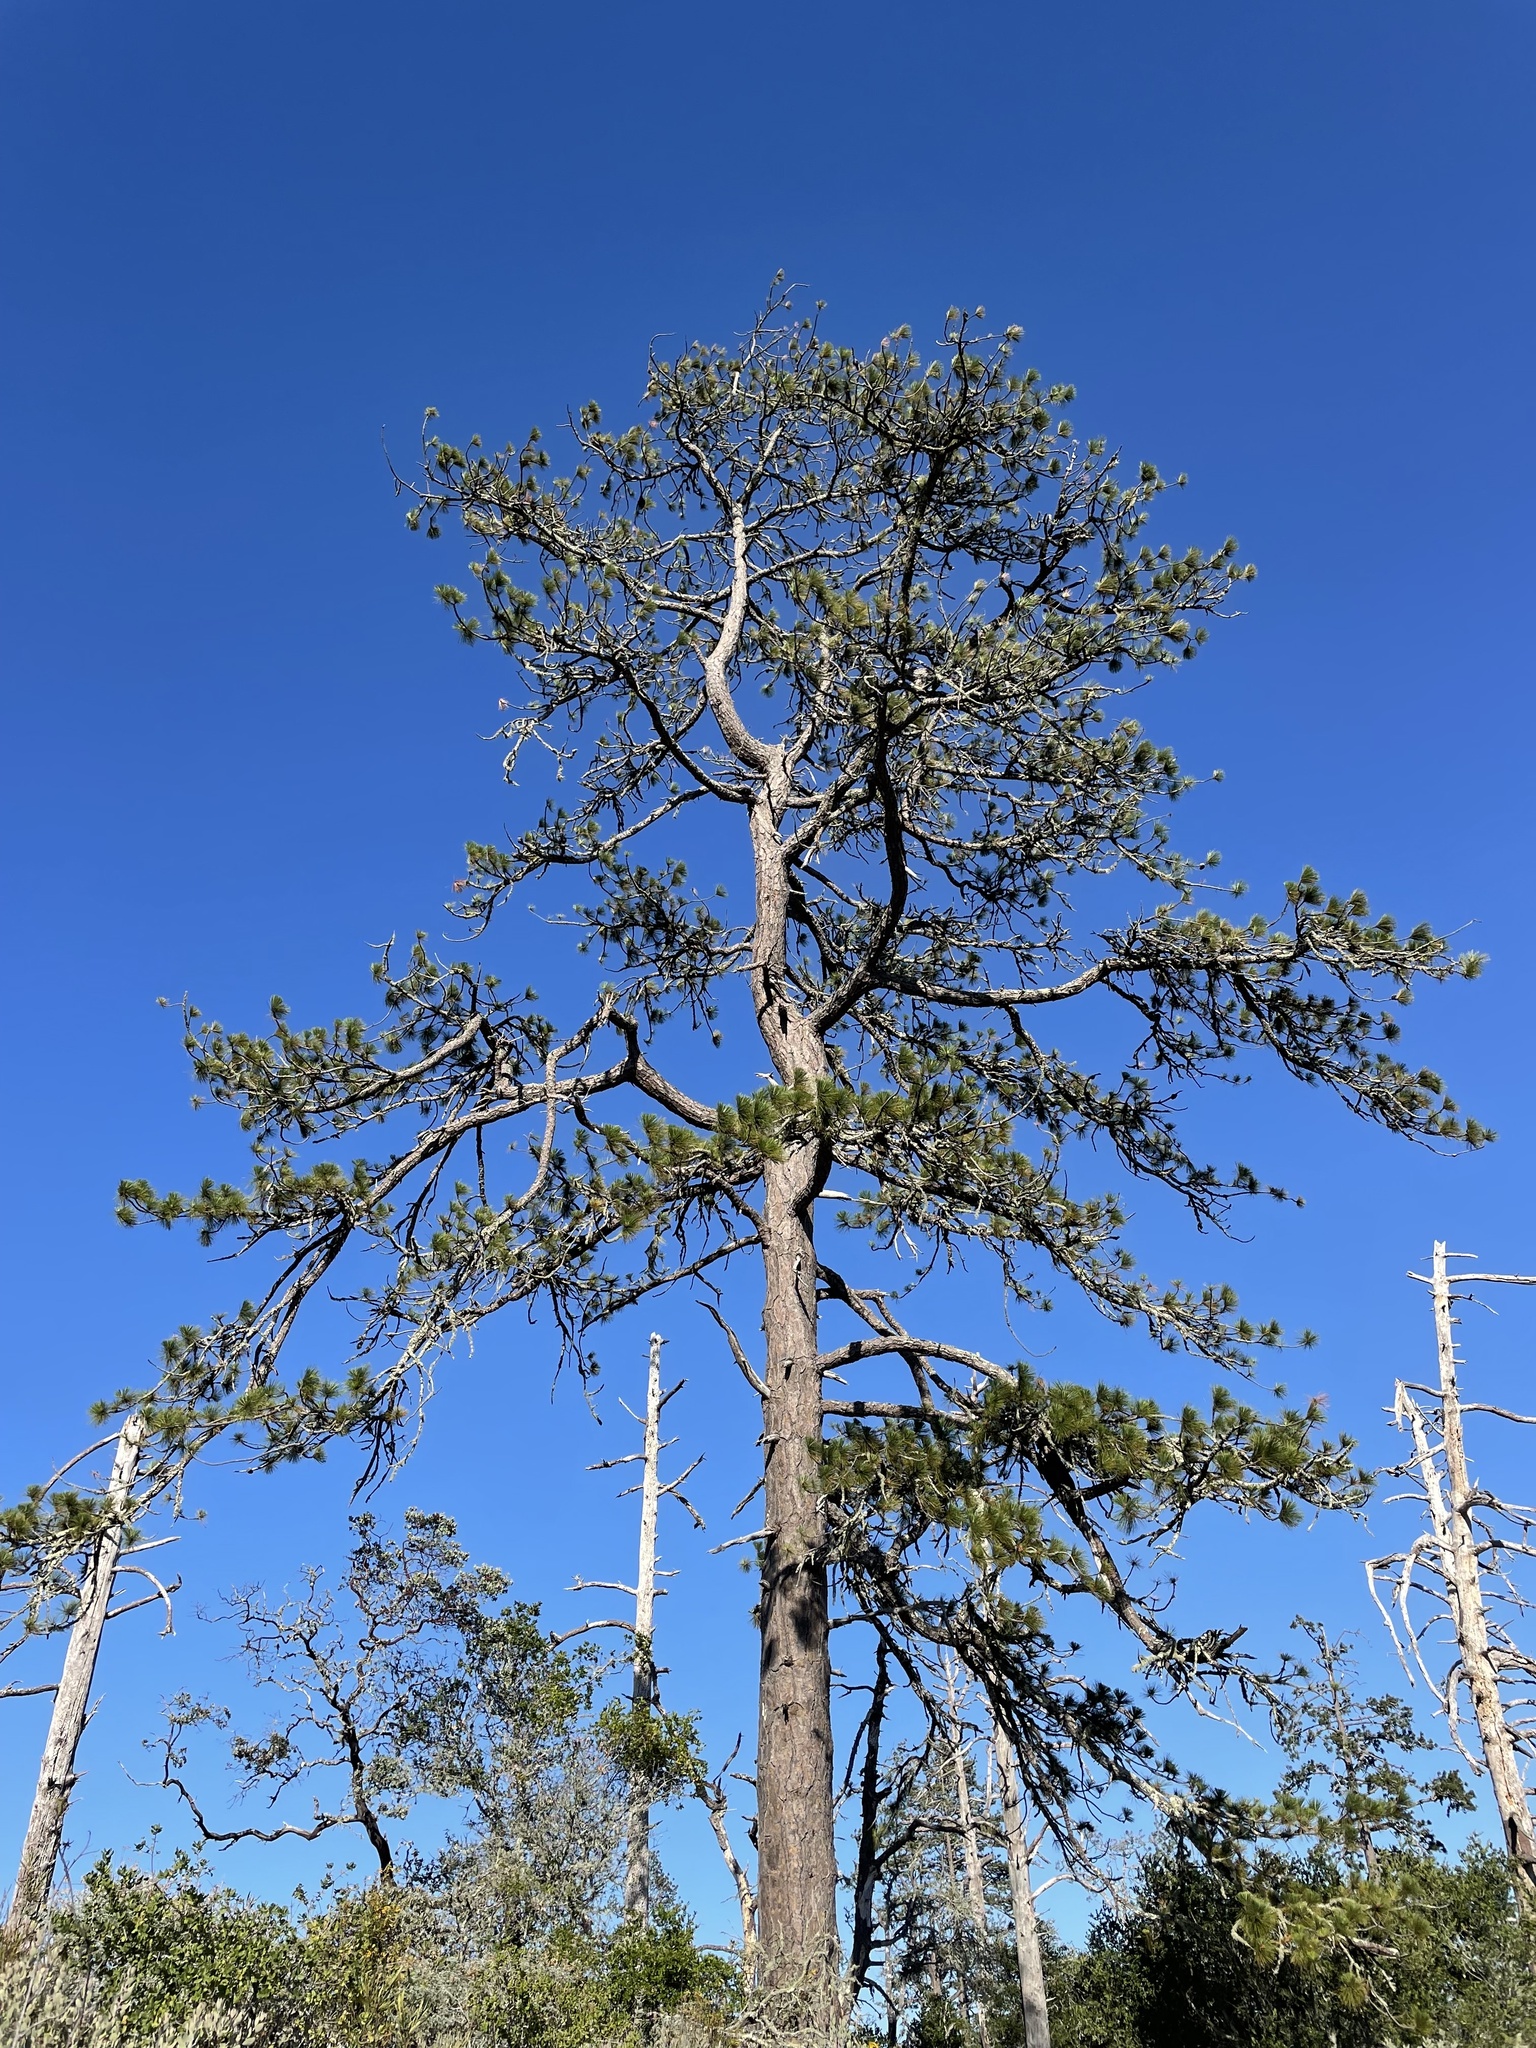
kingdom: Plantae
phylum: Tracheophyta
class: Pinopsida
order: Pinales
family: Pinaceae
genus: Pinus
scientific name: Pinus ponderosa
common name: Western yellow-pine
